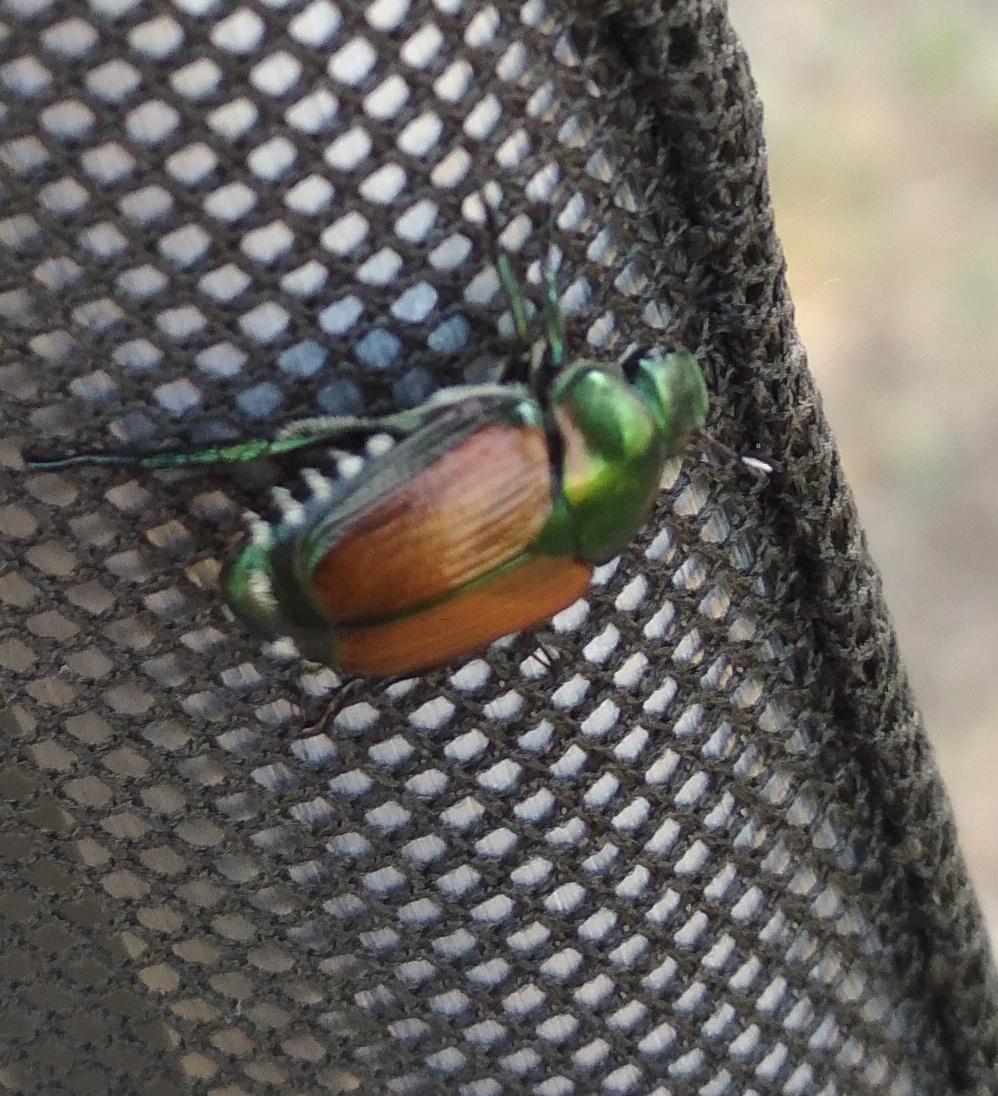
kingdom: Animalia
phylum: Arthropoda
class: Insecta
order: Coleoptera
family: Scarabaeidae
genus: Popillia
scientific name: Popillia japonica
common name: Japanese beetle
